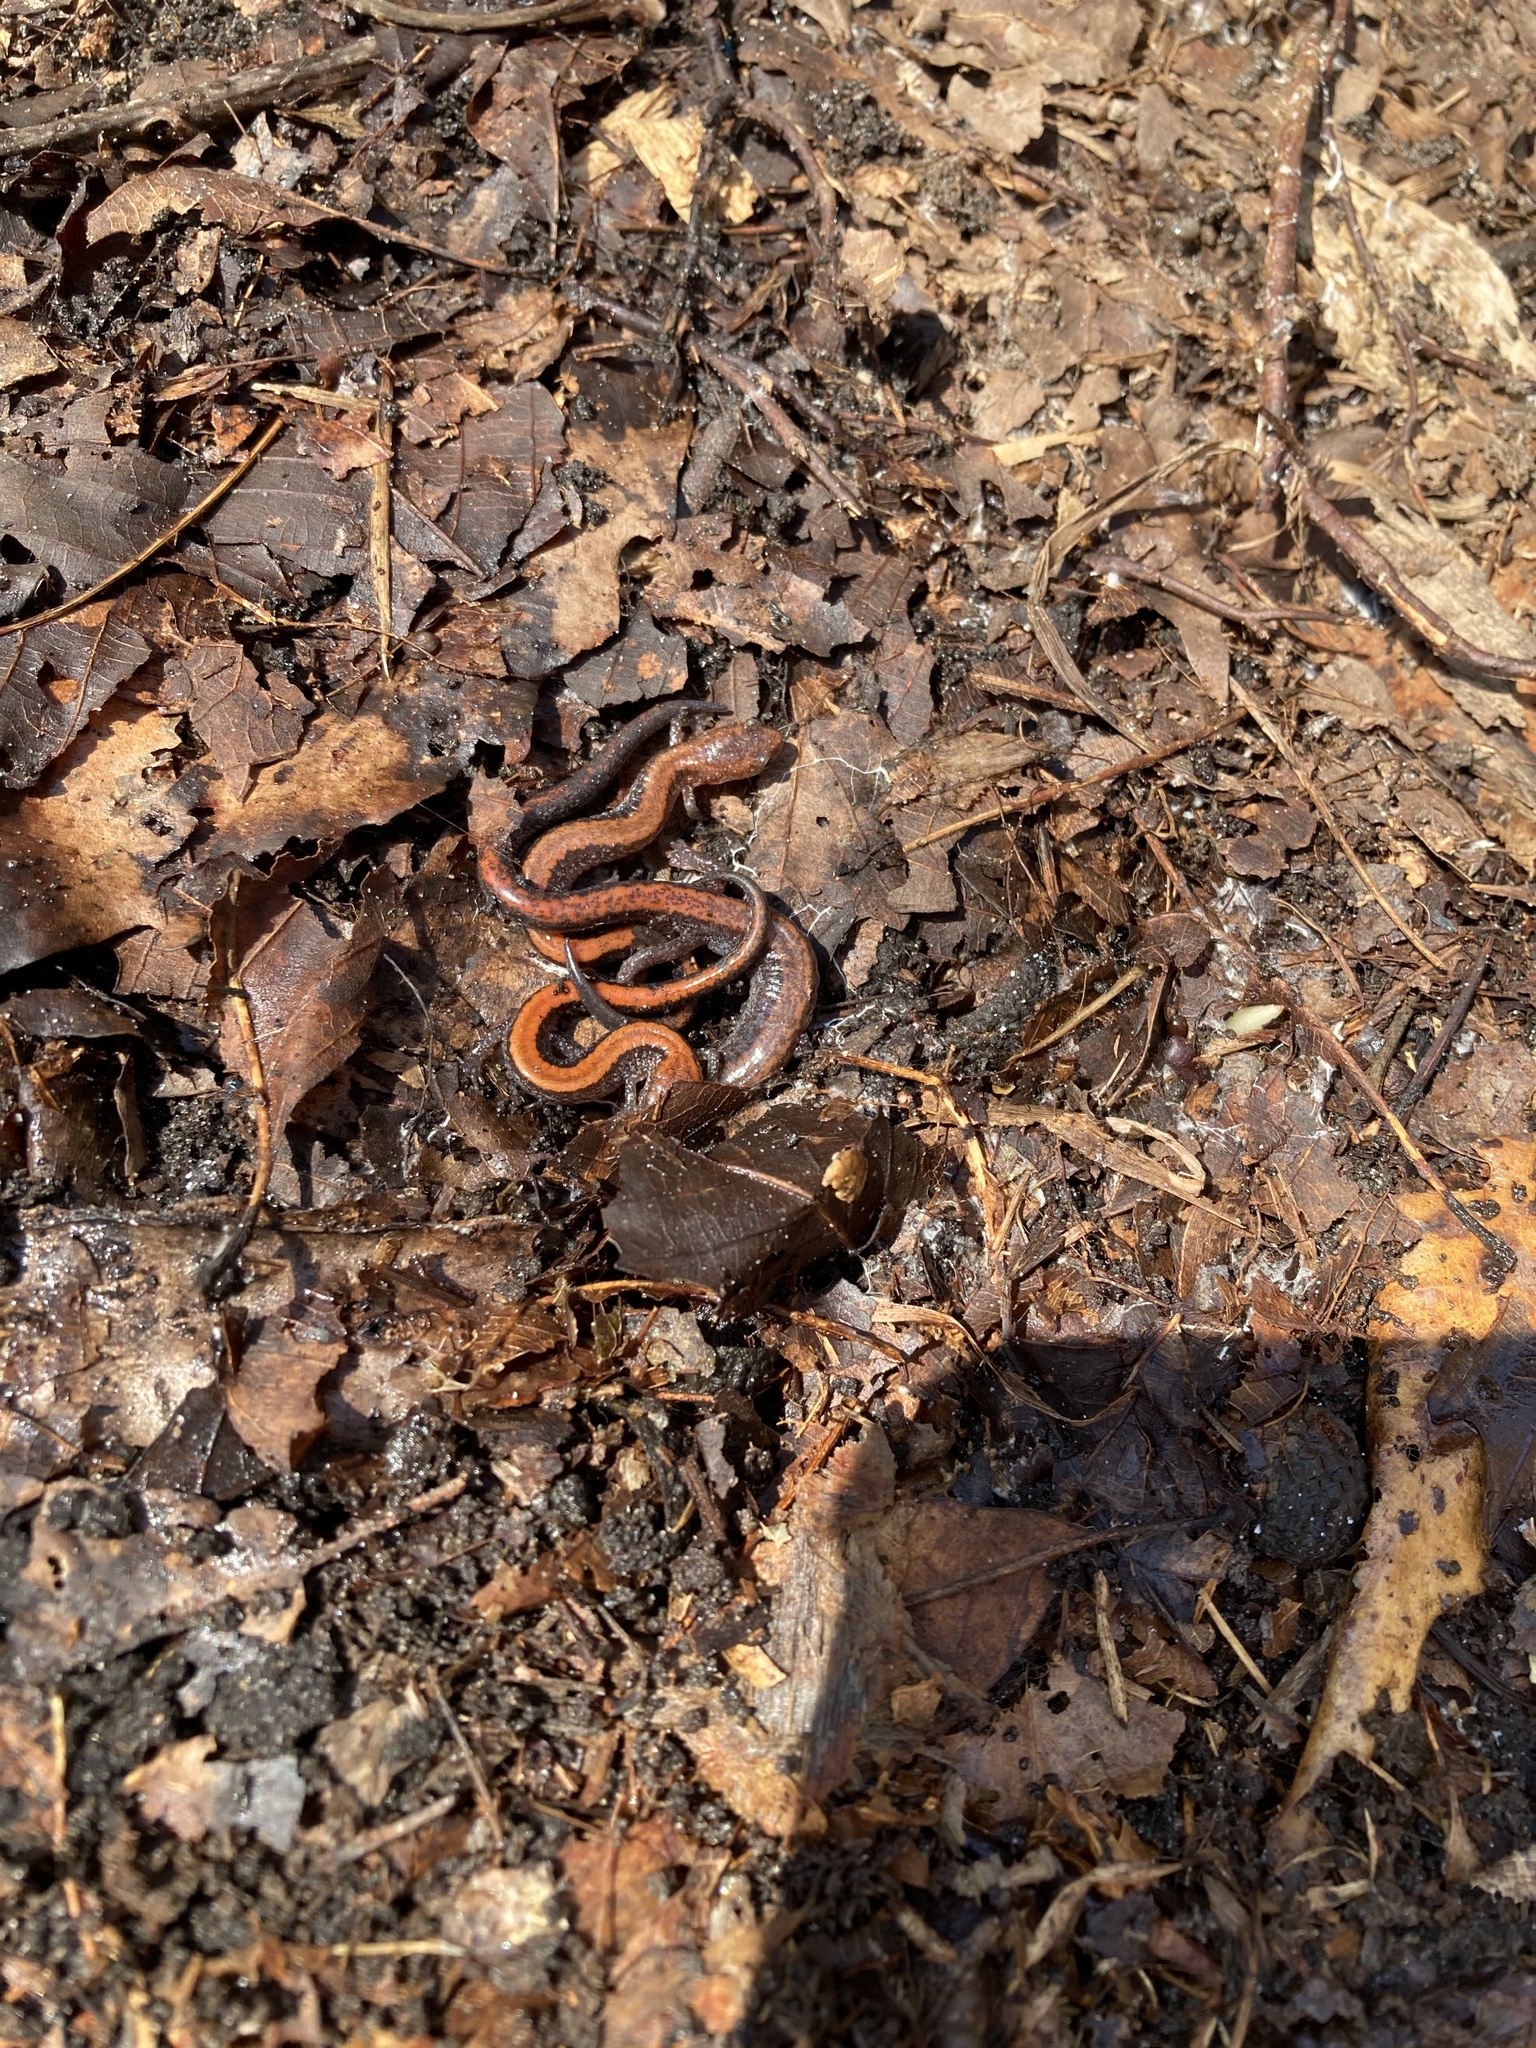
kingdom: Animalia
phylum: Chordata
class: Amphibia
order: Caudata
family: Plethodontidae
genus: Plethodon
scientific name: Plethodon cinereus
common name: Redback salamander
